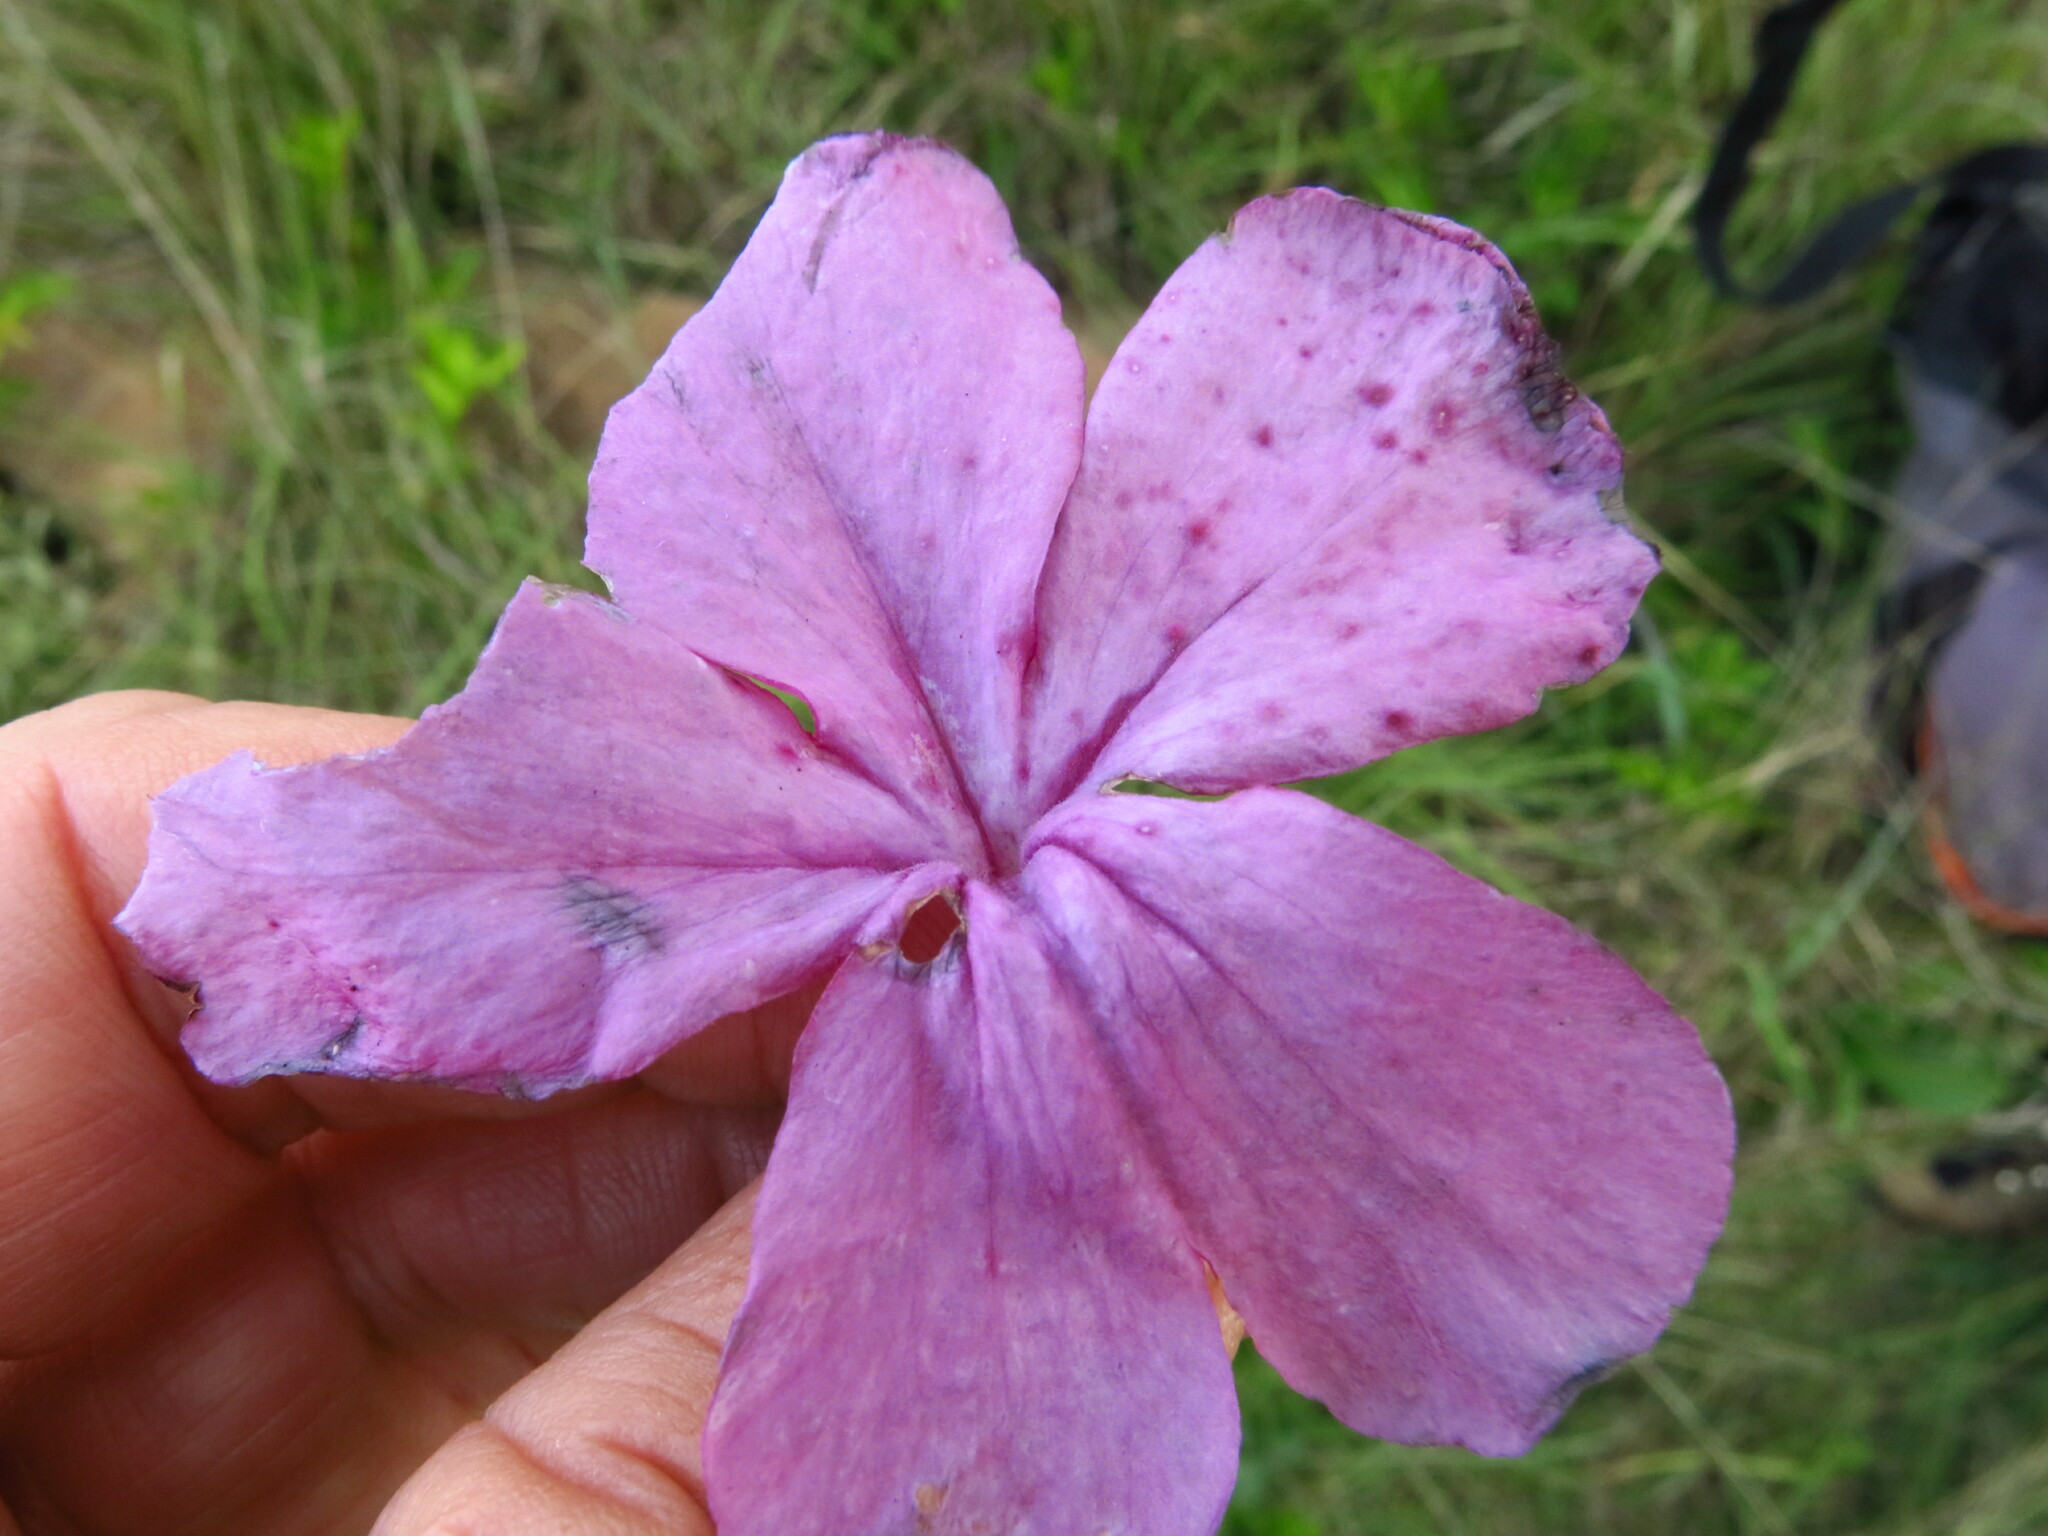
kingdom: Plantae
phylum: Tracheophyta
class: Magnoliopsida
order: Lamiales
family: Orobanchaceae
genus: Cycnium
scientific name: Cycnium racemosum
